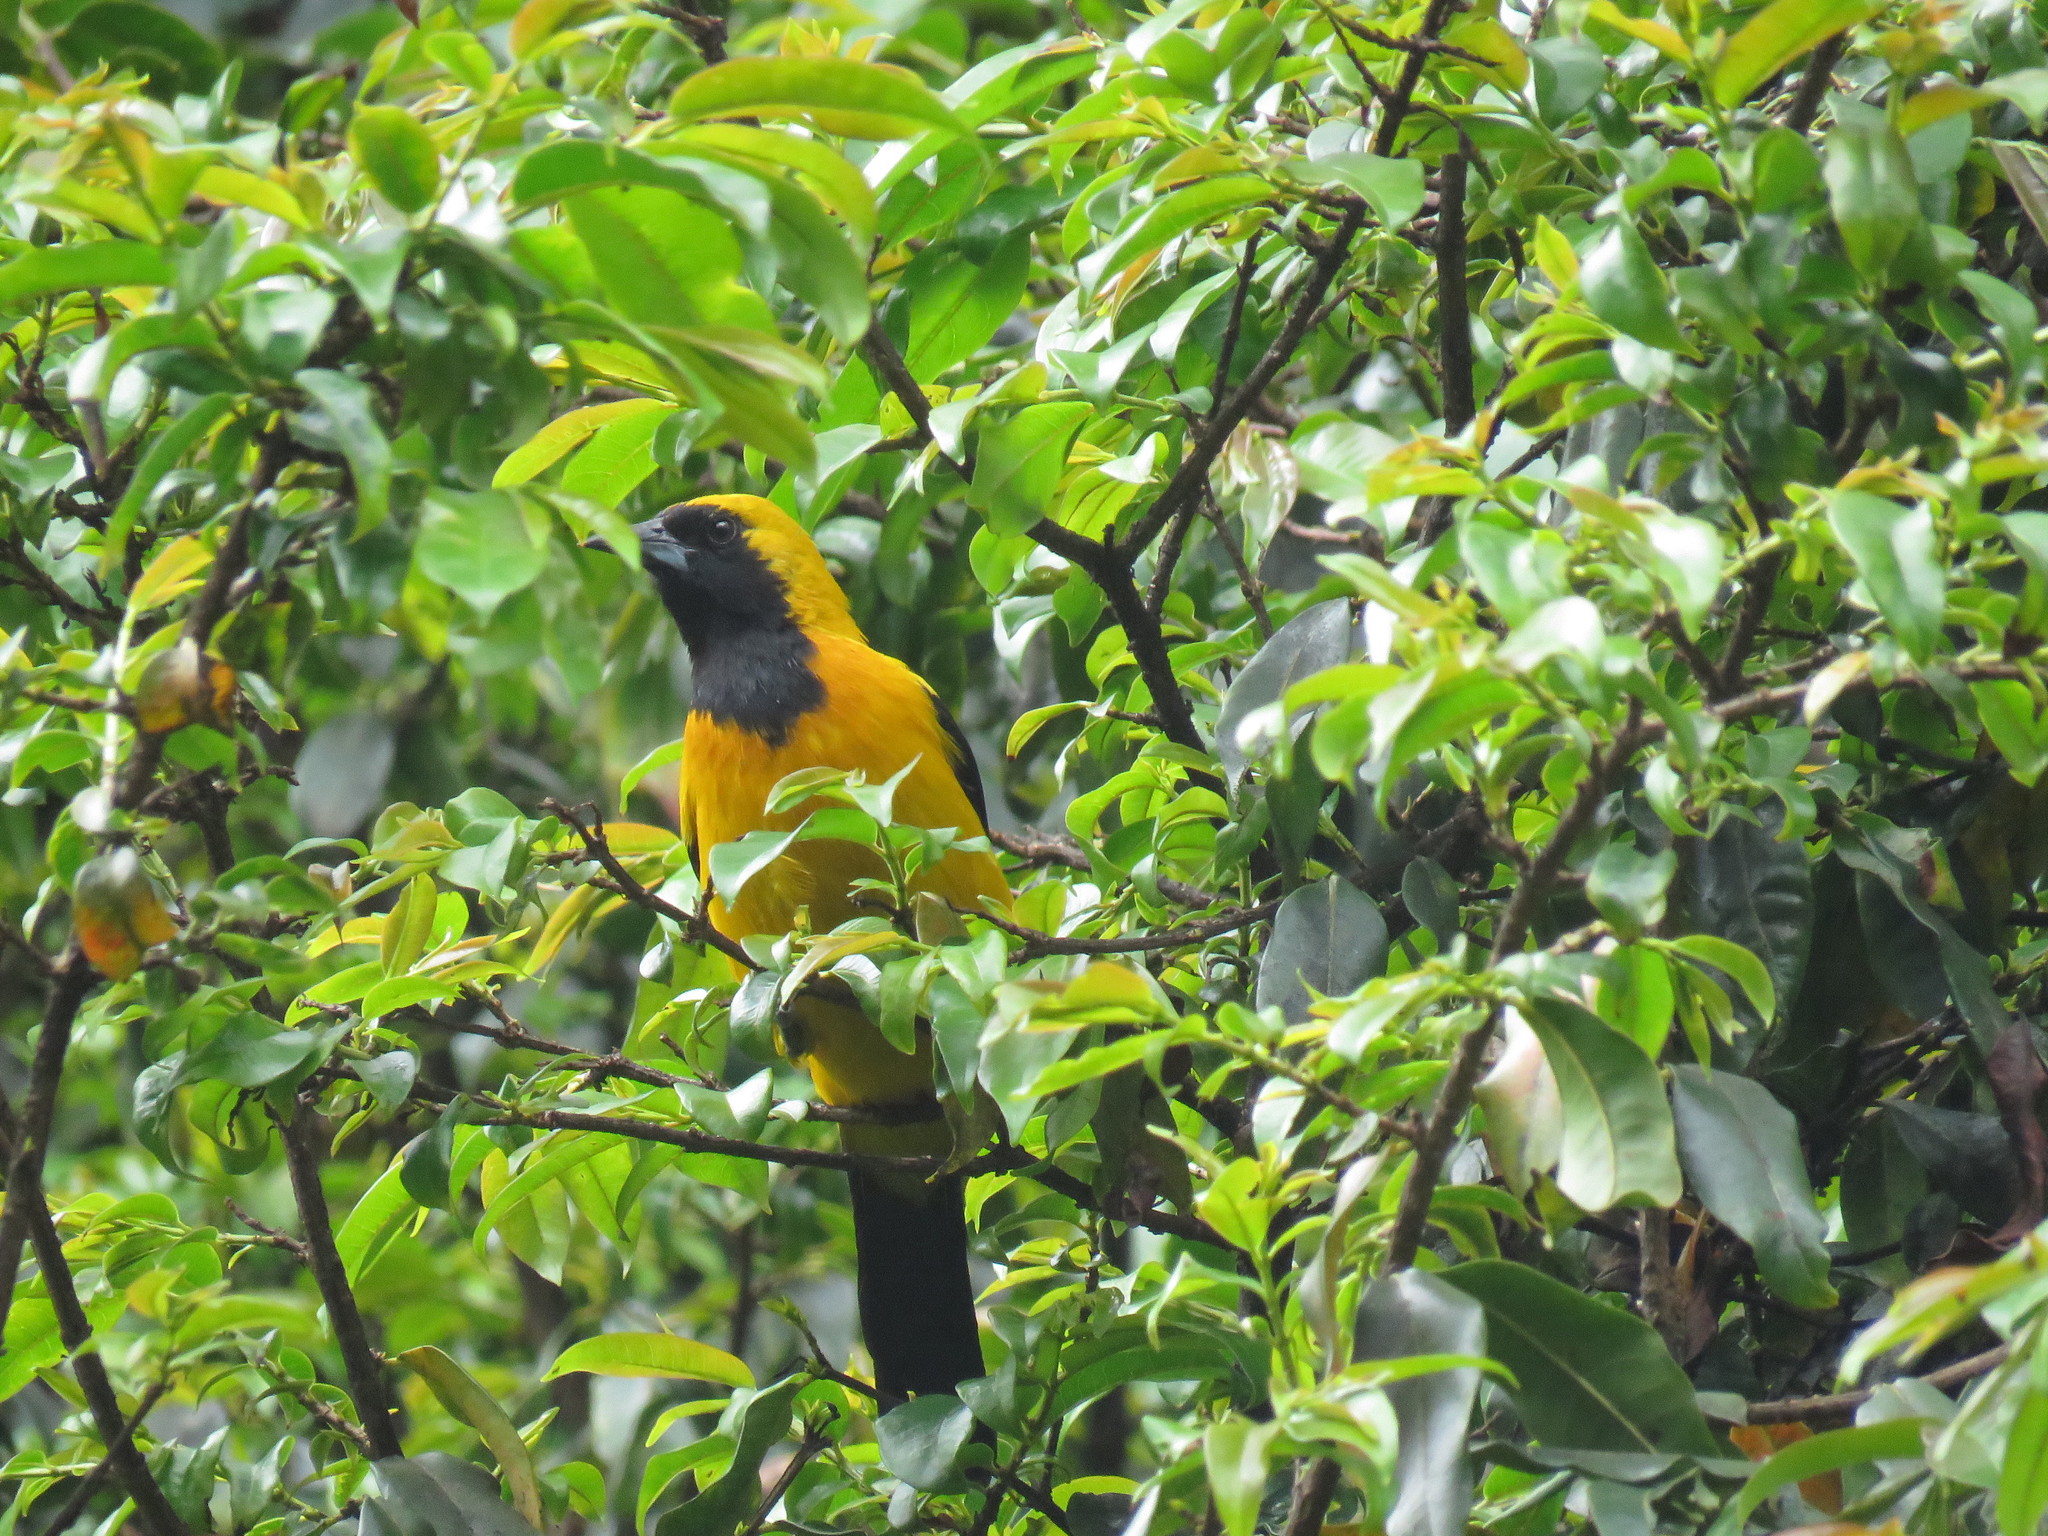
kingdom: Animalia
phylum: Chordata
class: Aves
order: Passeriformes
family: Icteridae
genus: Icterus
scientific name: Icterus chrysater
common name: Yellow-backed oriole
